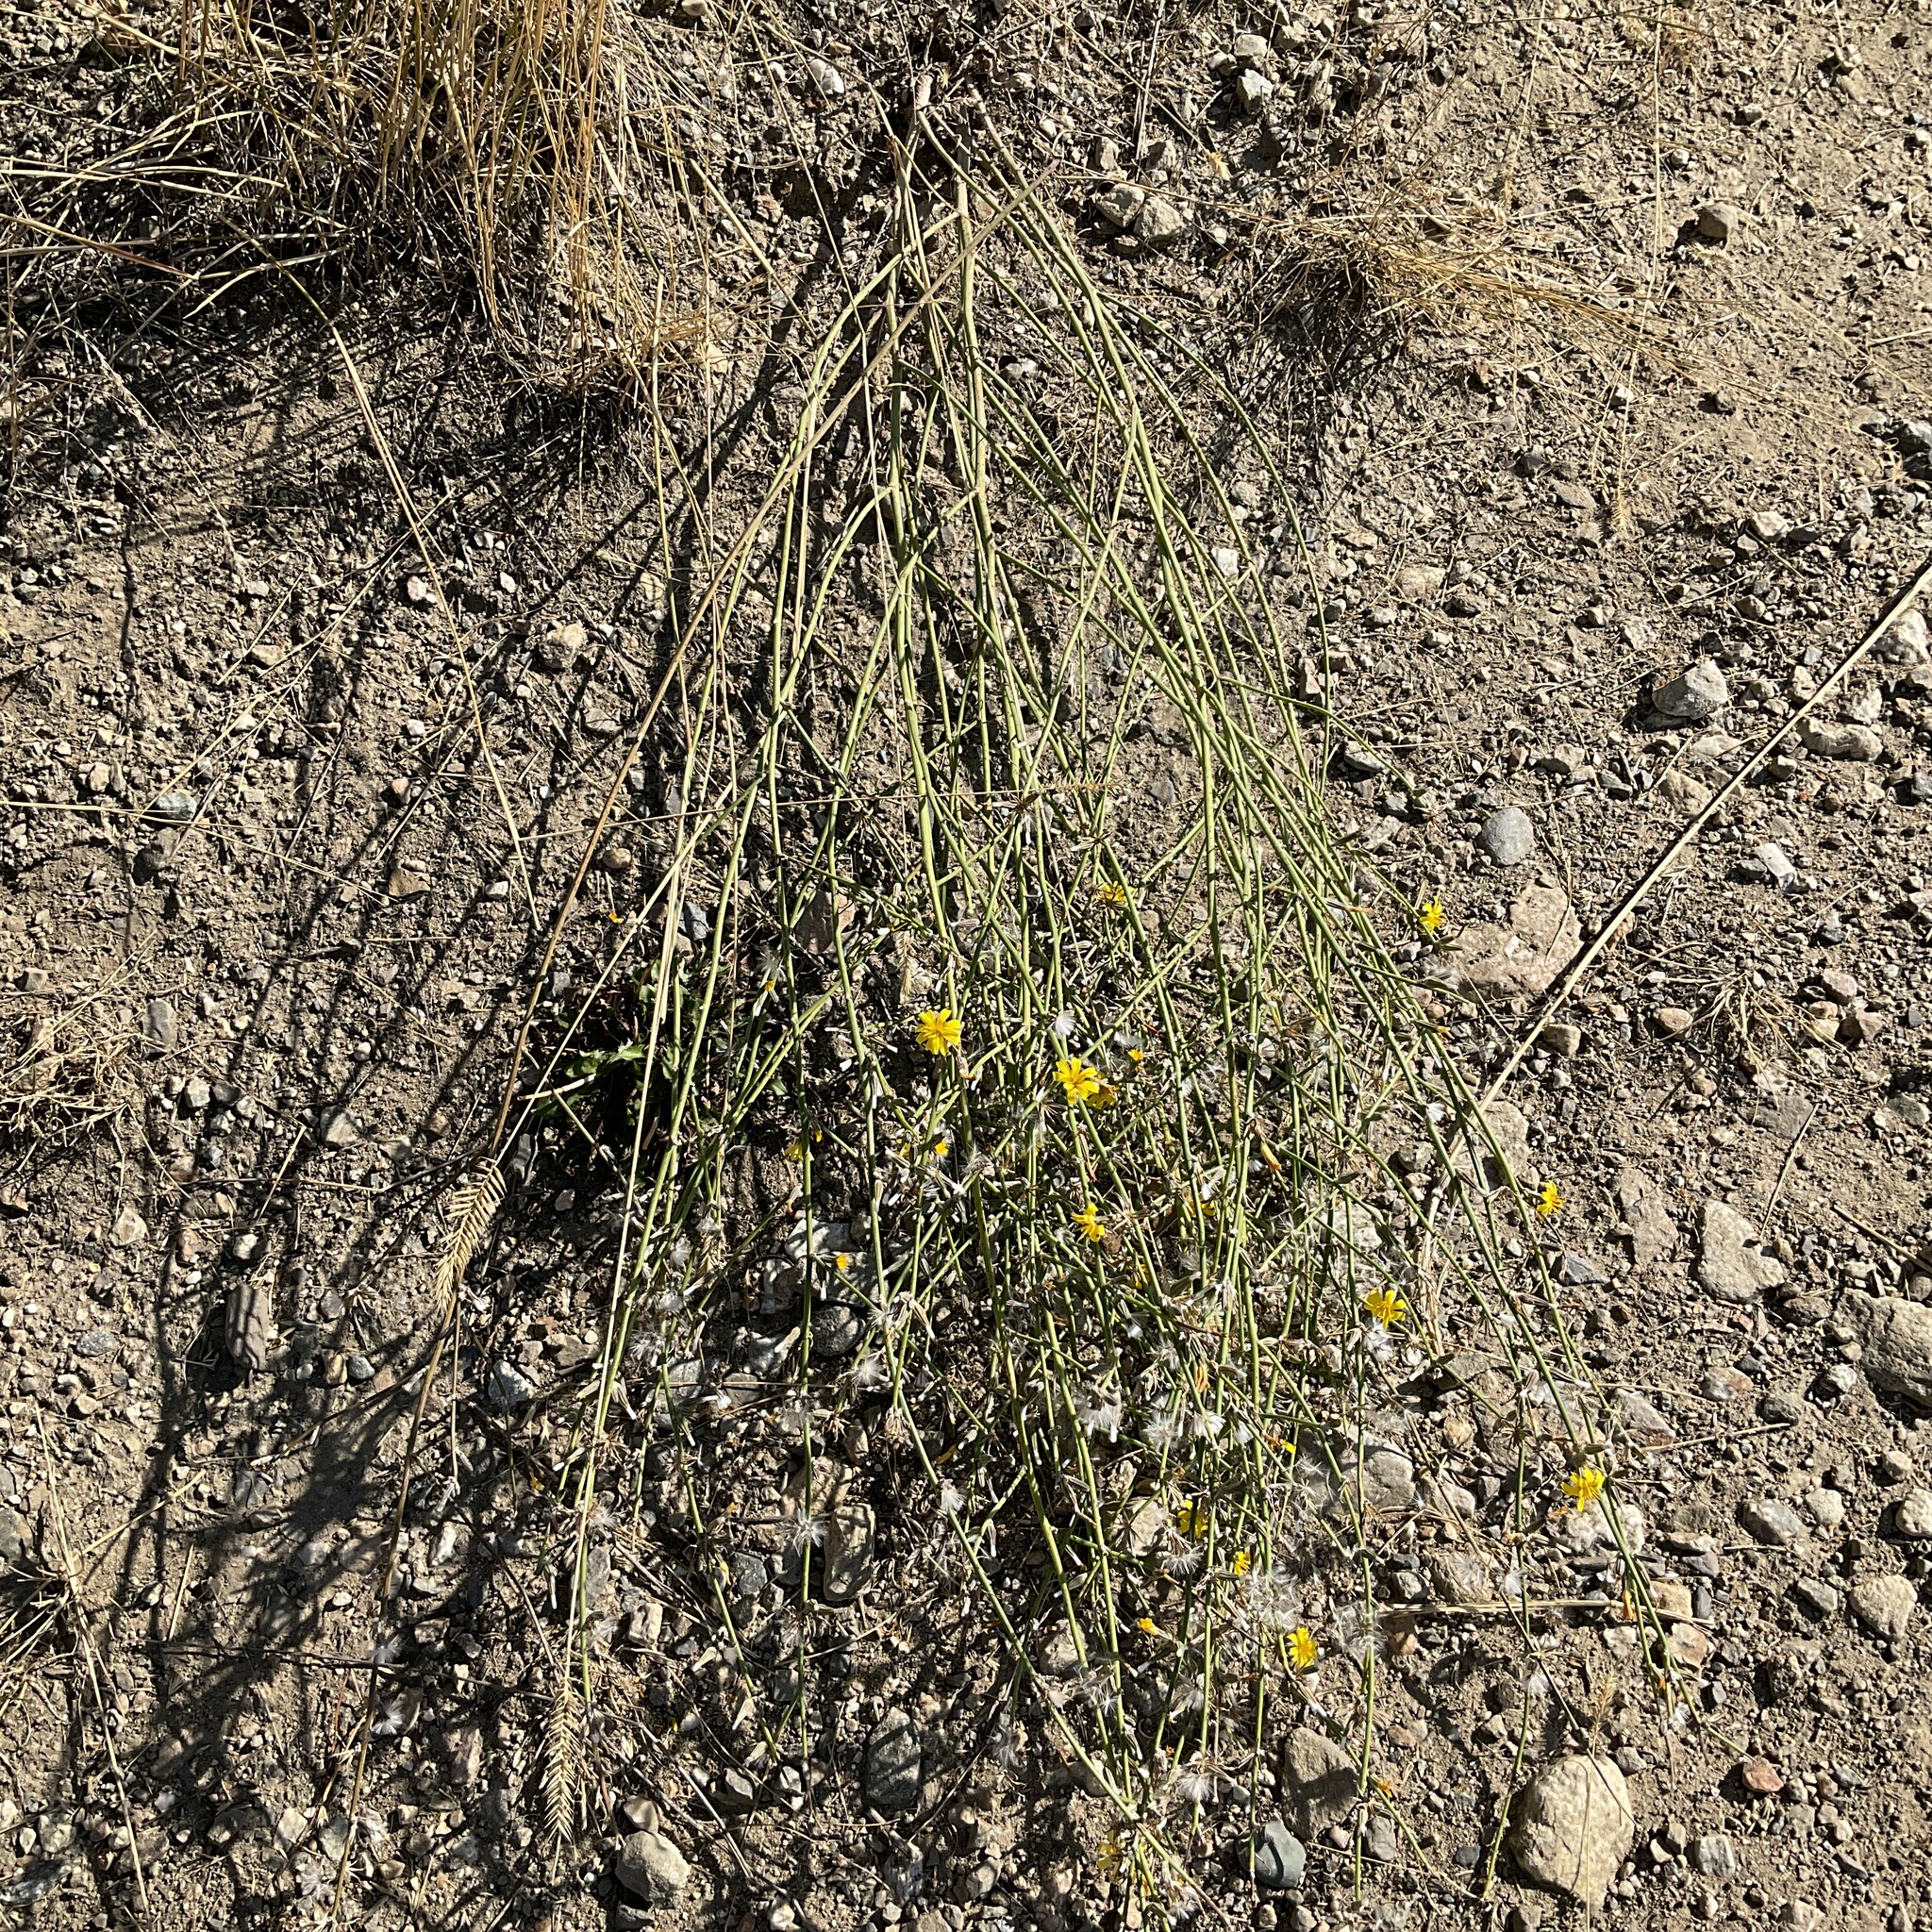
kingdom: Plantae
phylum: Tracheophyta
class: Magnoliopsida
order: Asterales
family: Asteraceae
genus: Chondrilla
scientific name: Chondrilla juncea
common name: Skeleton weed
